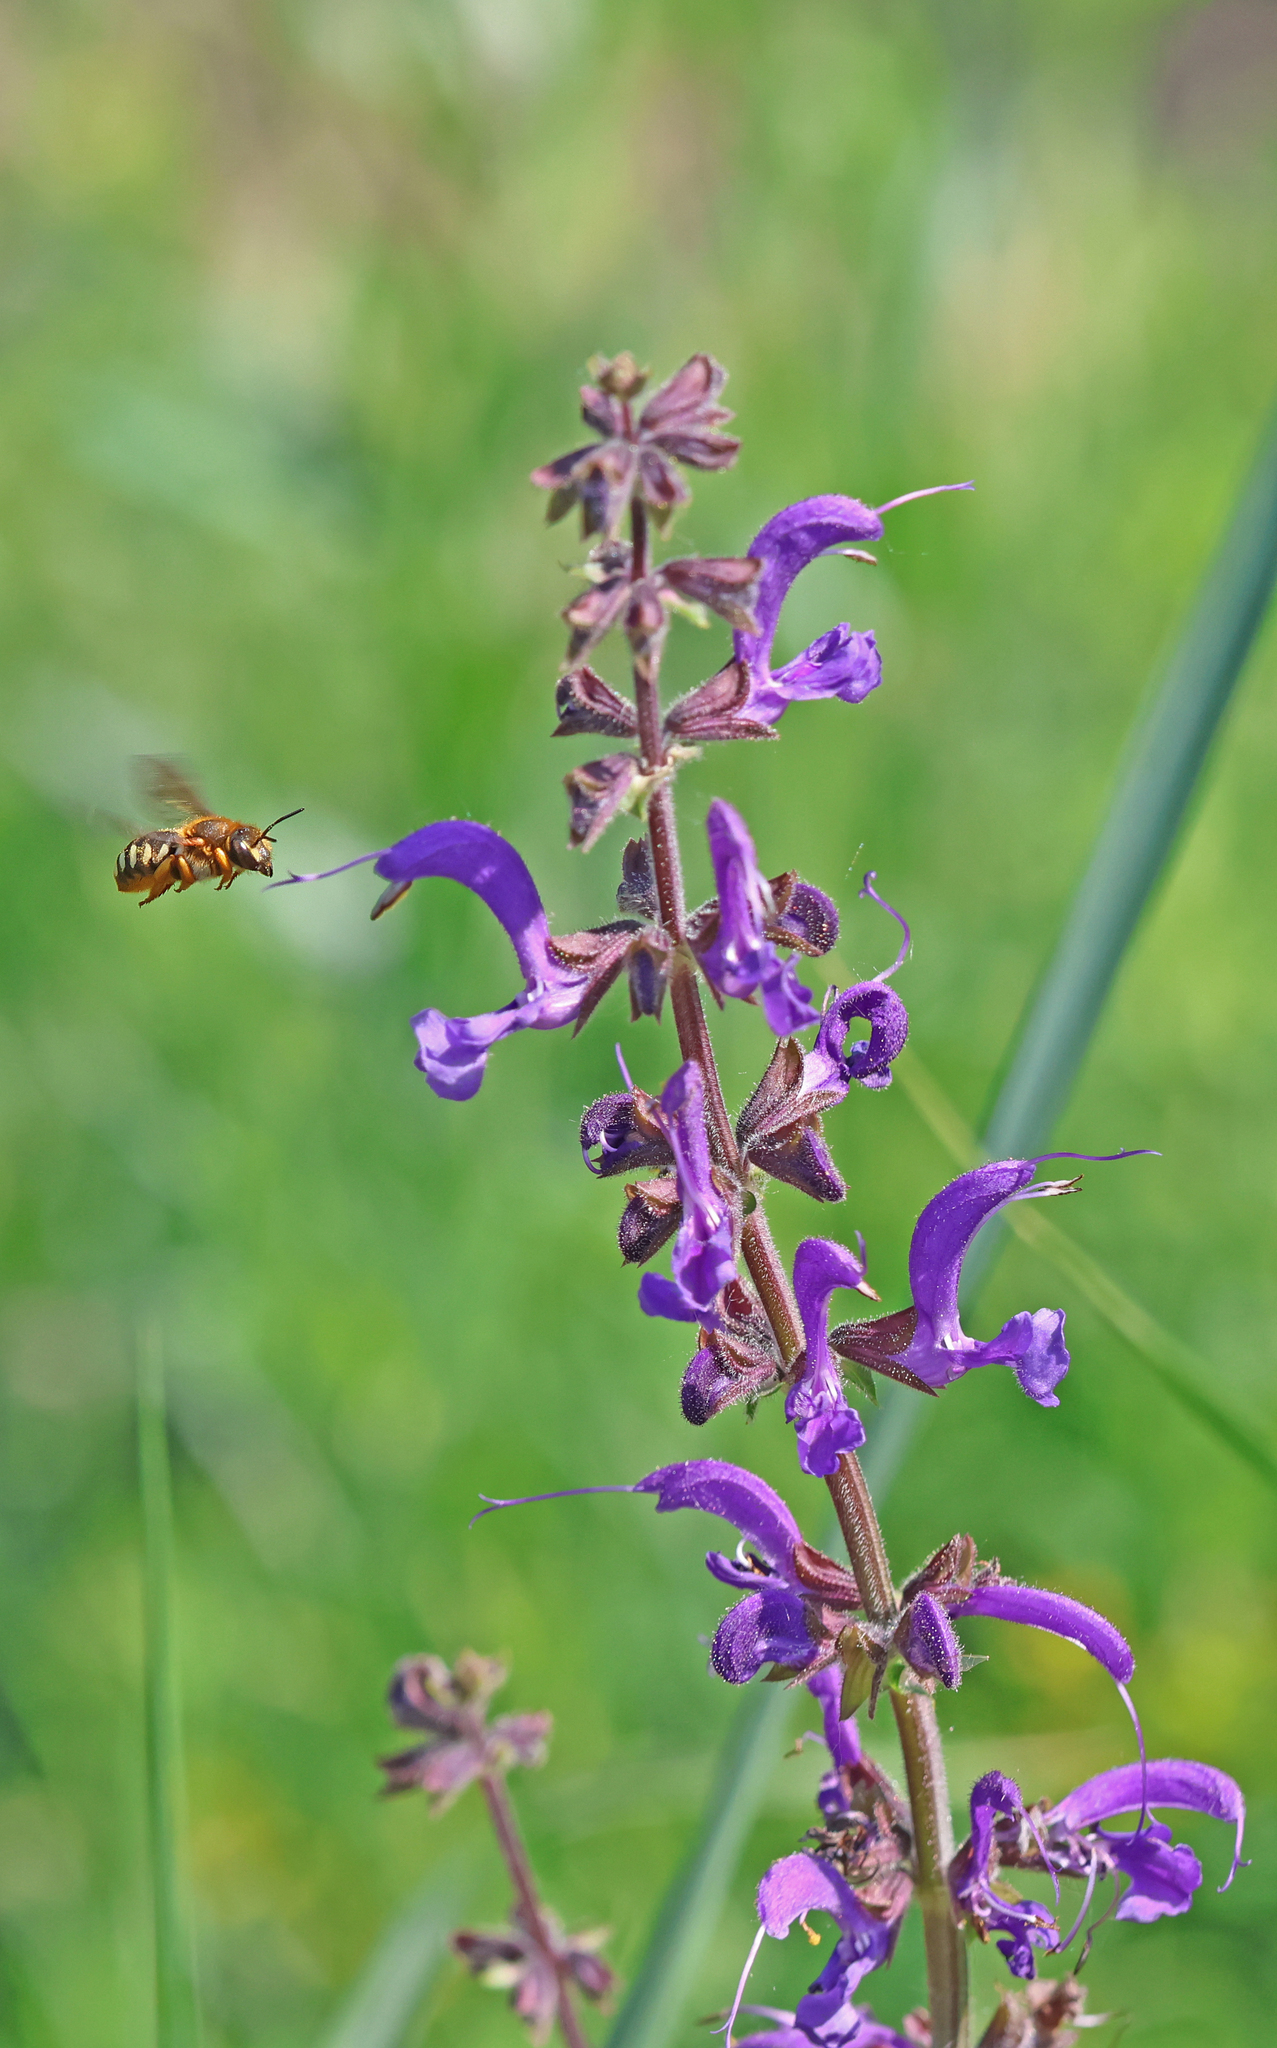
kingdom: Animalia
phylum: Arthropoda
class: Insecta
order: Hymenoptera
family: Megachilidae
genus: Rhodanthidium
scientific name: Rhodanthidium septemdentatum
